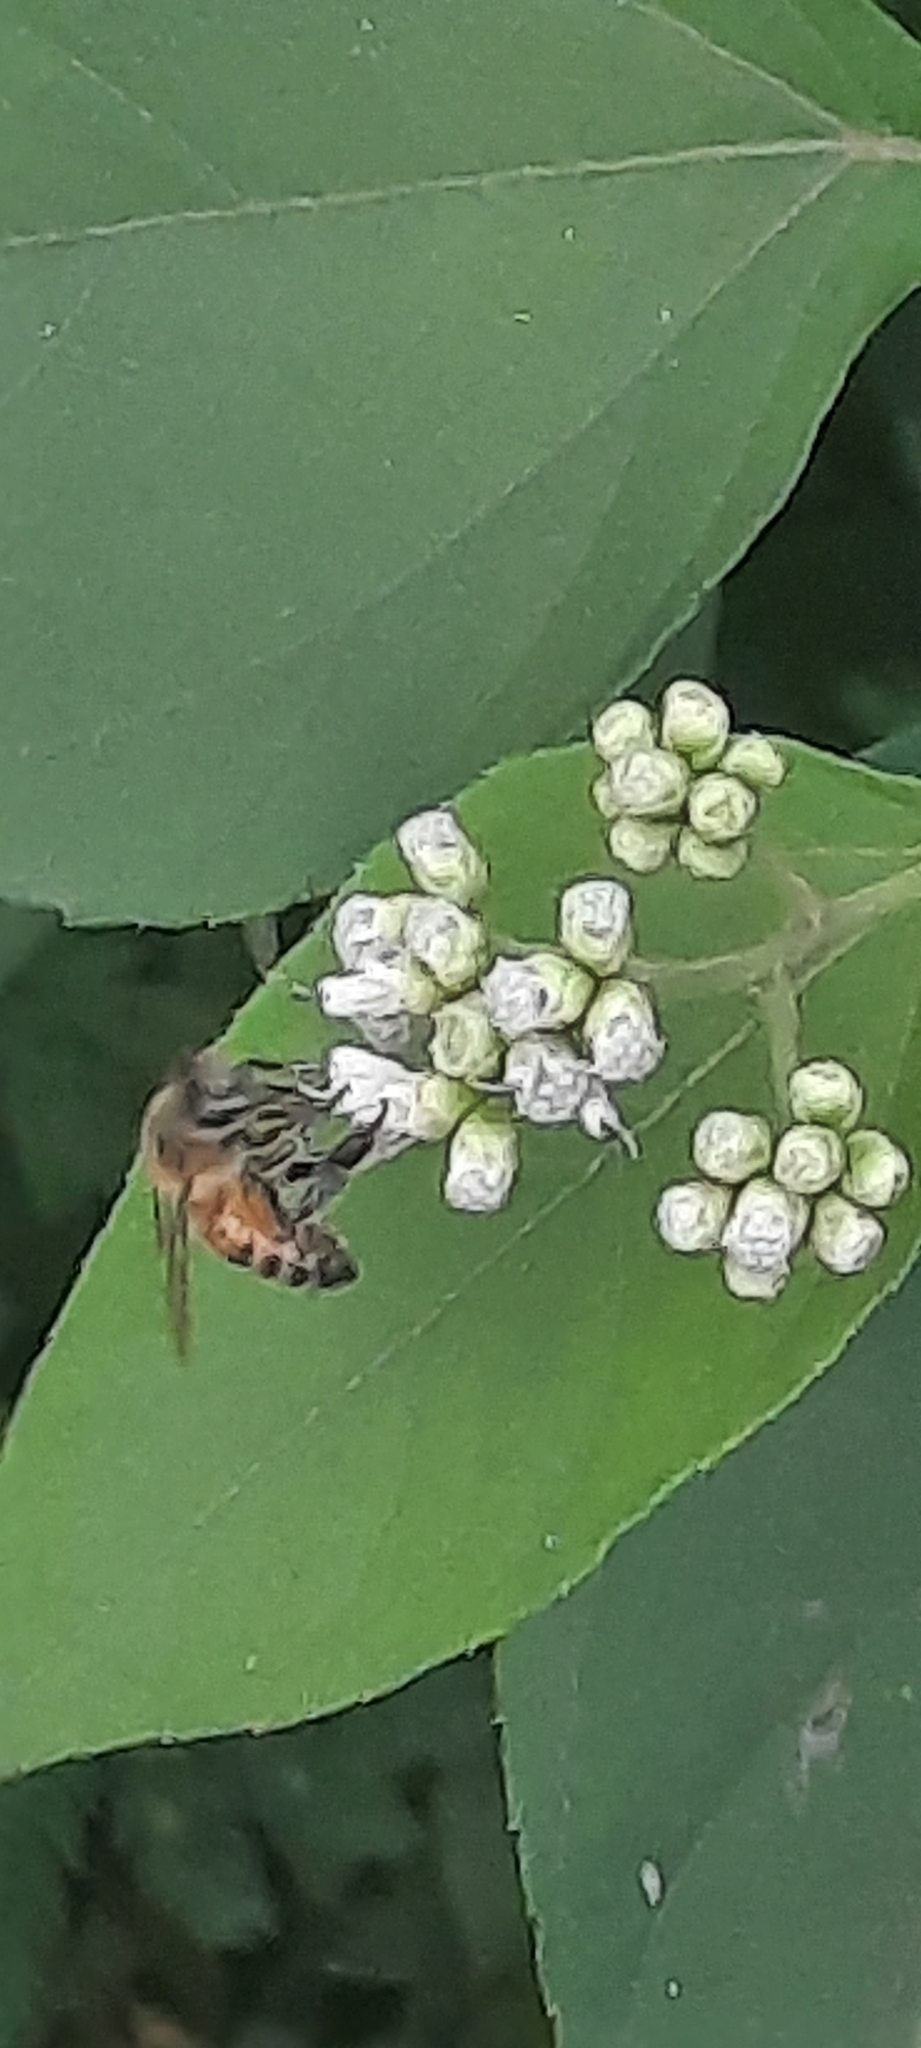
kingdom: Animalia
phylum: Arthropoda
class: Insecta
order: Hymenoptera
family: Apidae
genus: Apis
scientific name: Apis mellifera
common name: Honey bee
